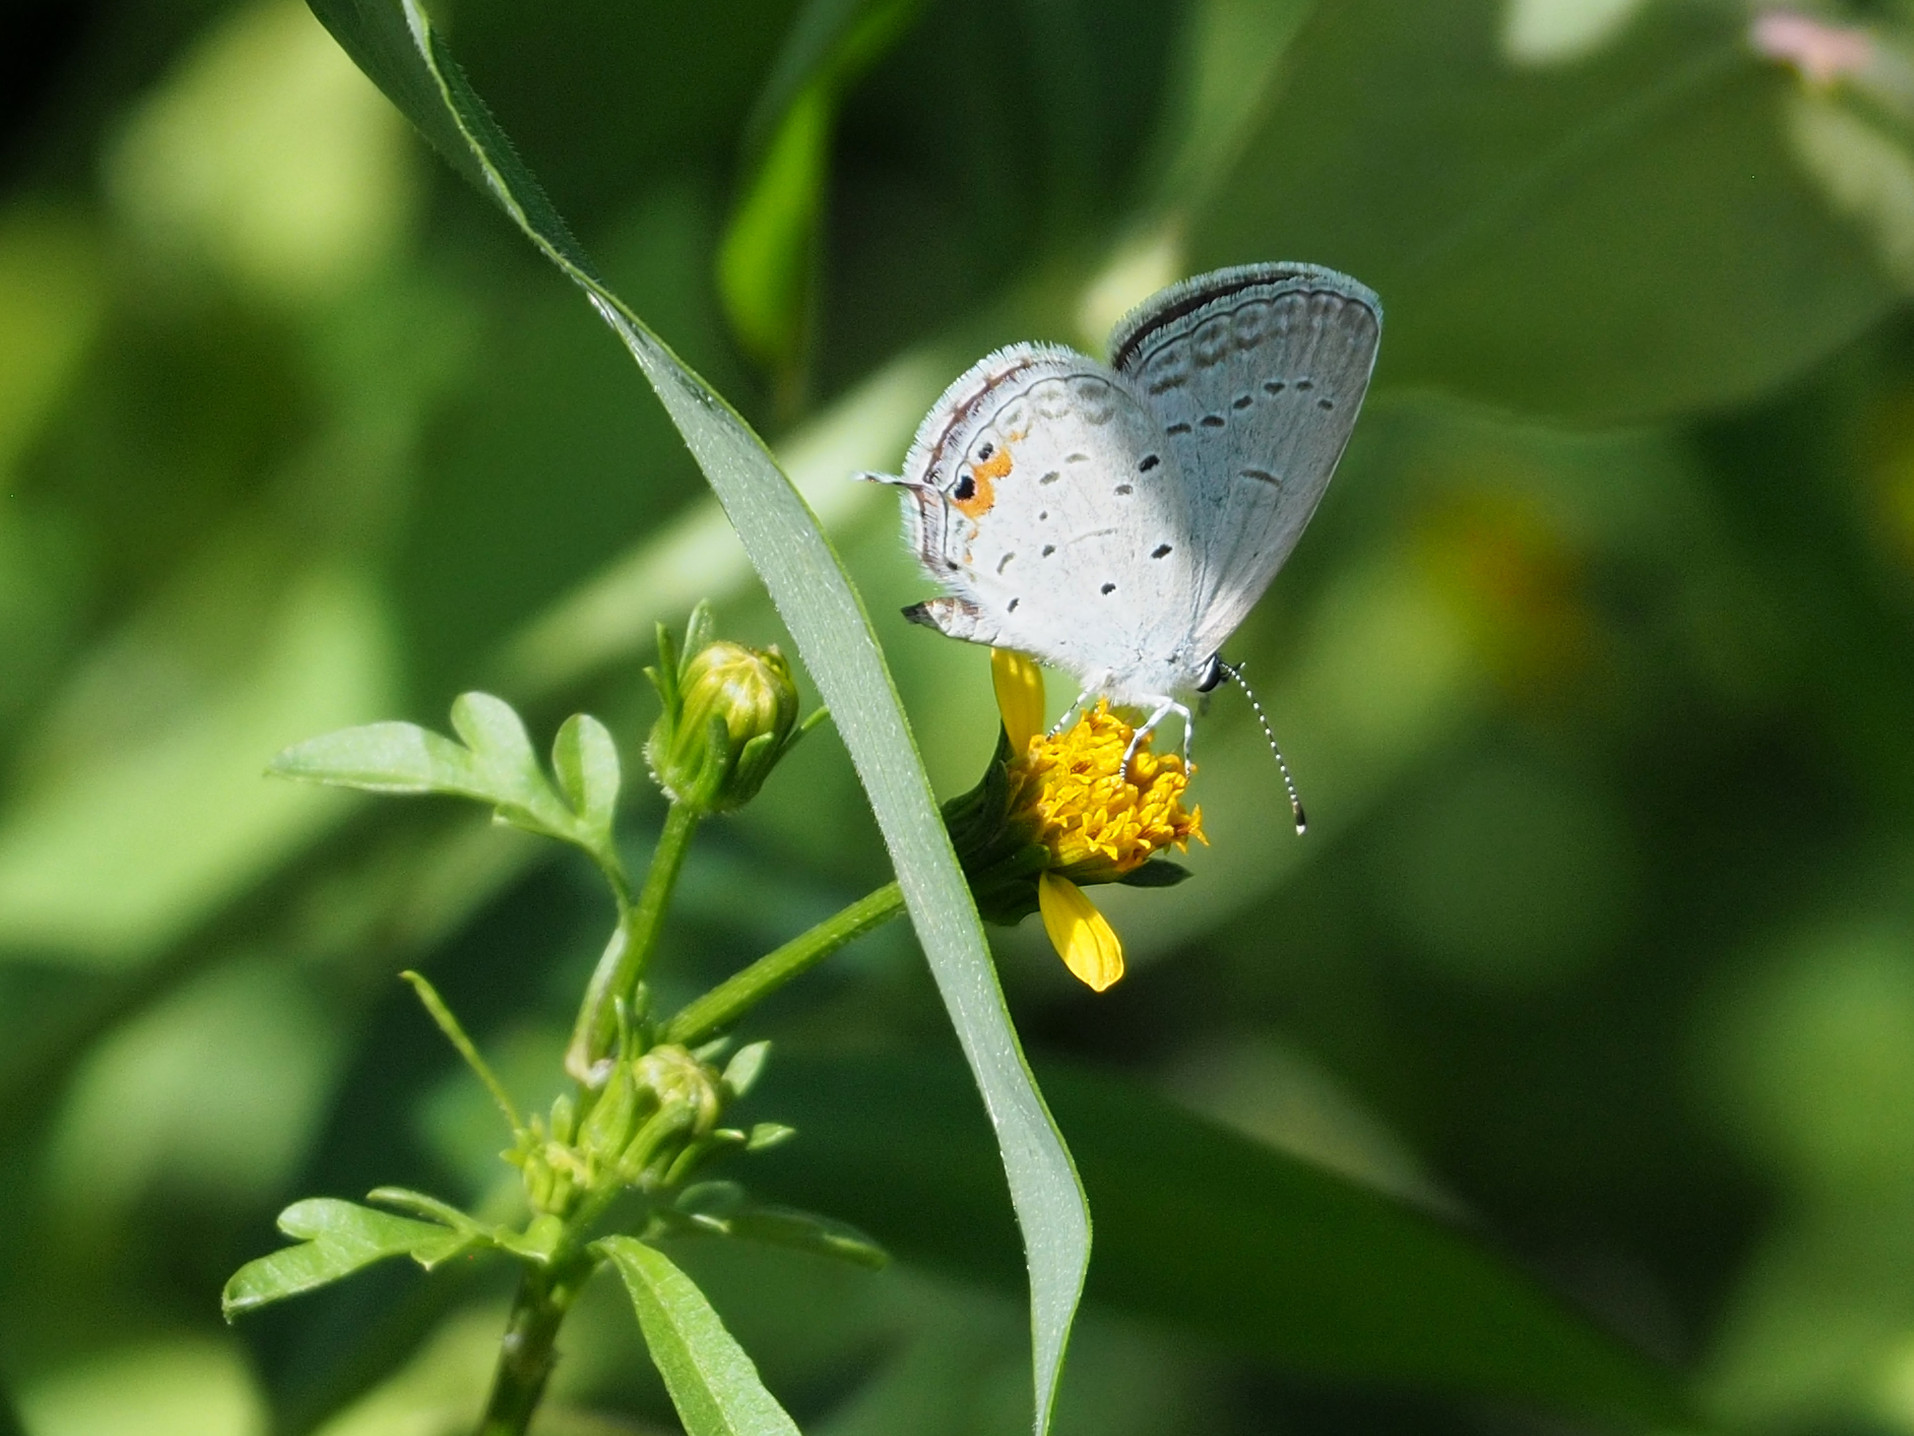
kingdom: Animalia
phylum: Arthropoda
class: Insecta
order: Lepidoptera
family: Lycaenidae
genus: Elkalyce
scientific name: Elkalyce comyntas
